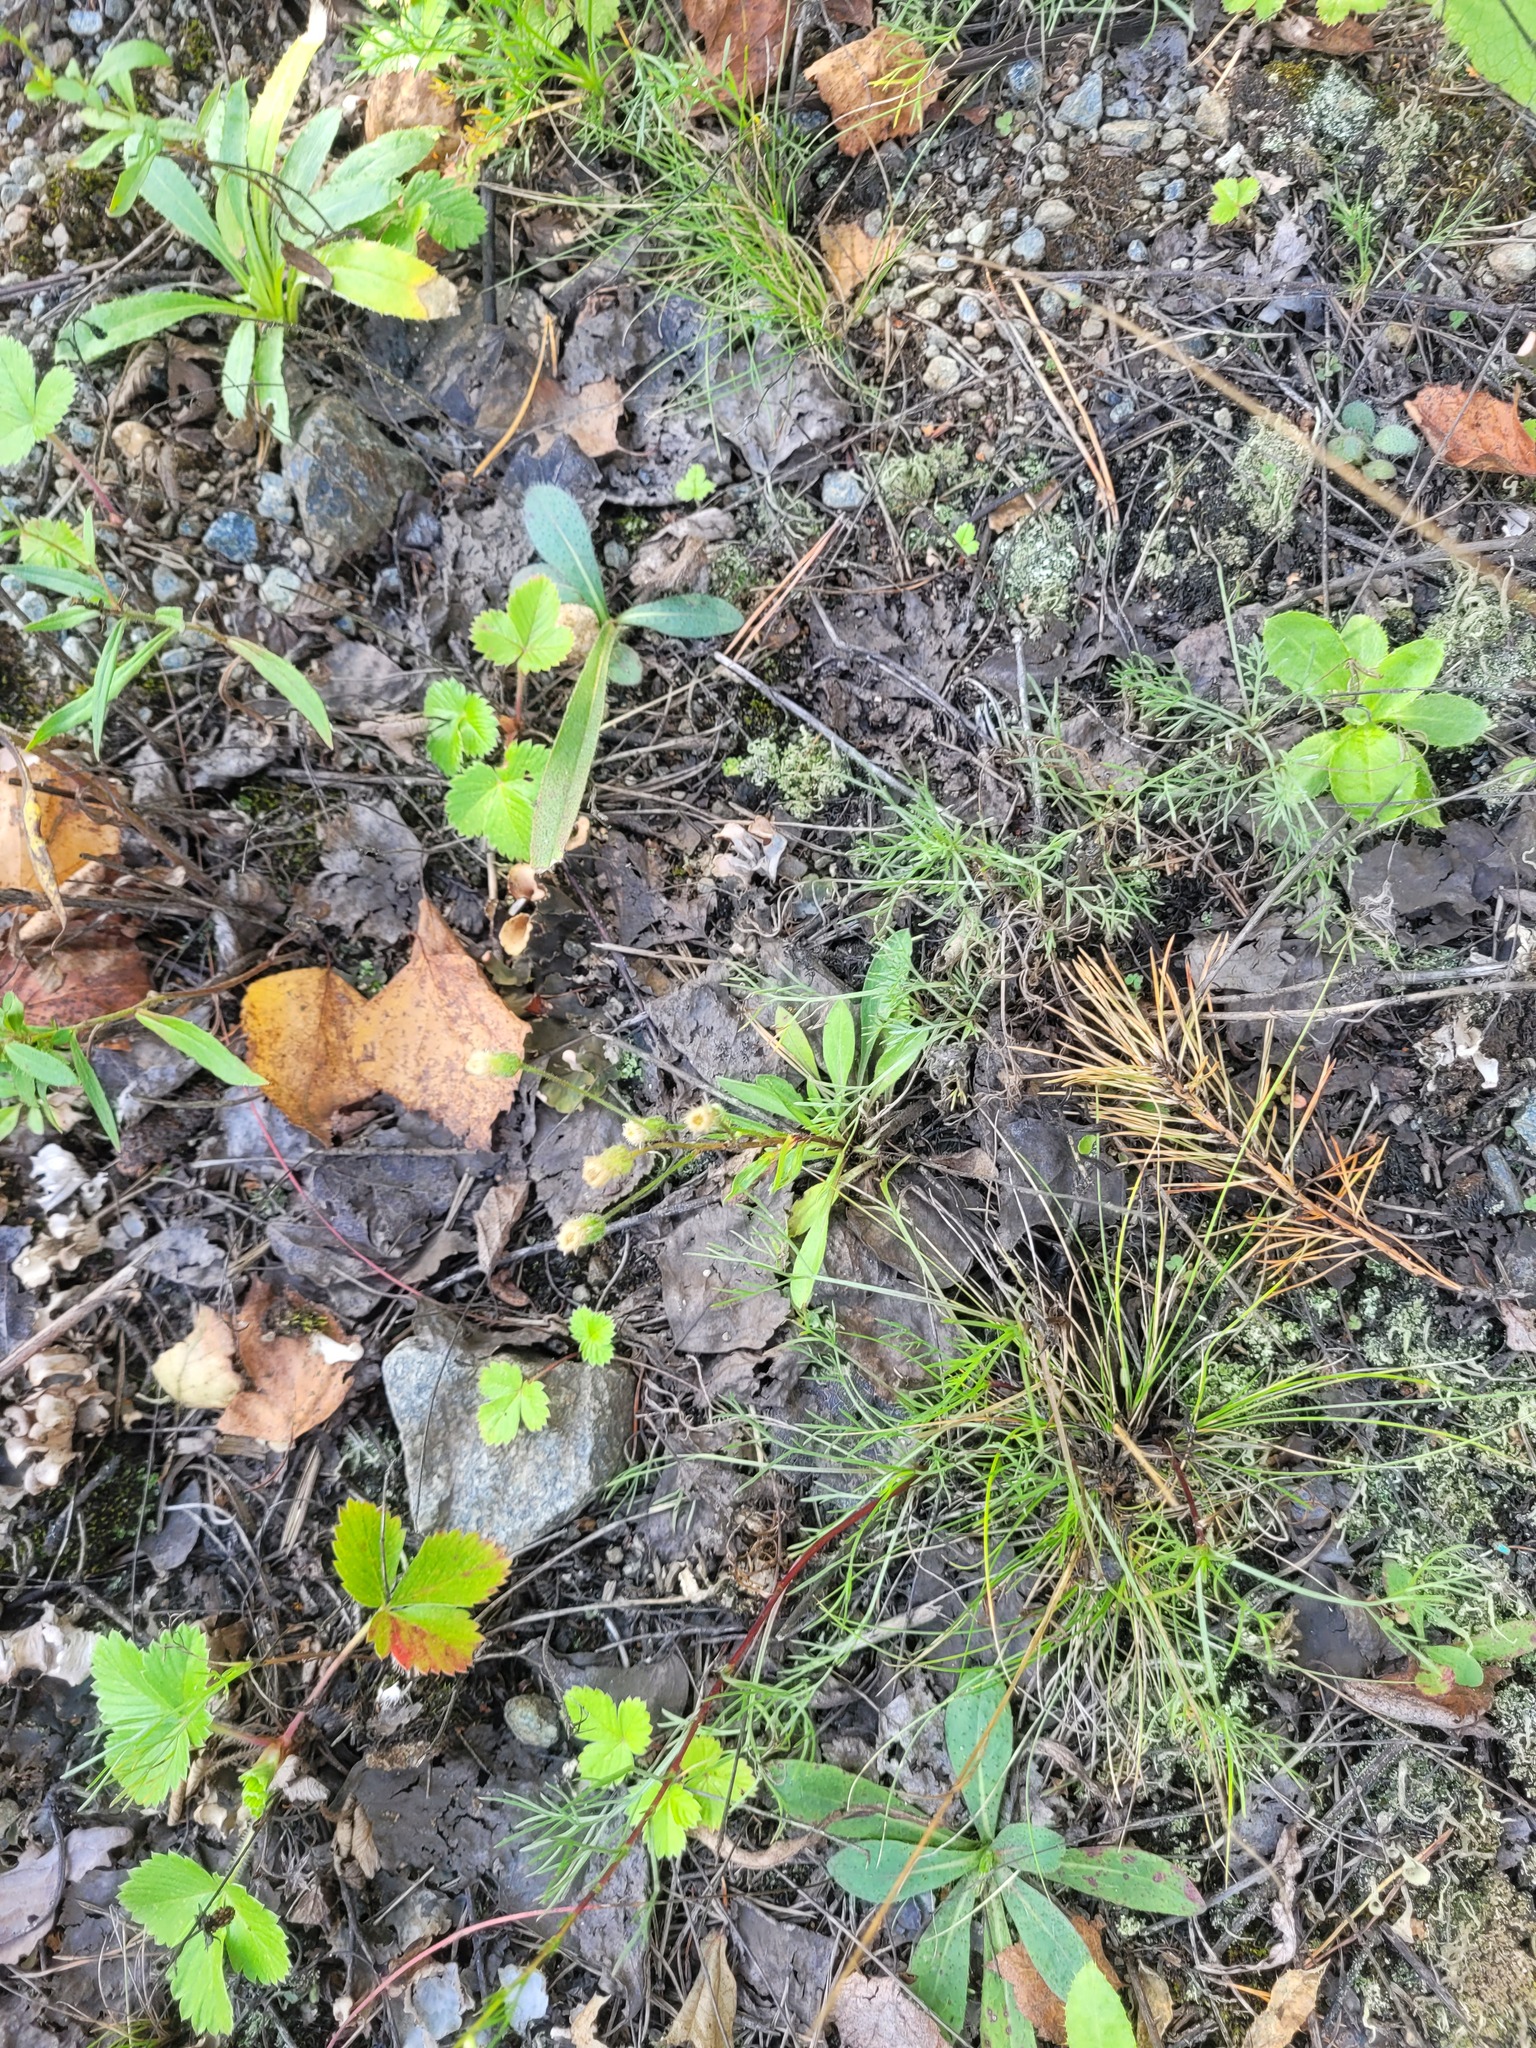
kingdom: Plantae
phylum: Tracheophyta
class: Magnoliopsida
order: Asterales
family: Asteraceae
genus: Erigeron
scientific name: Erigeron acris
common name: Blue fleabane
